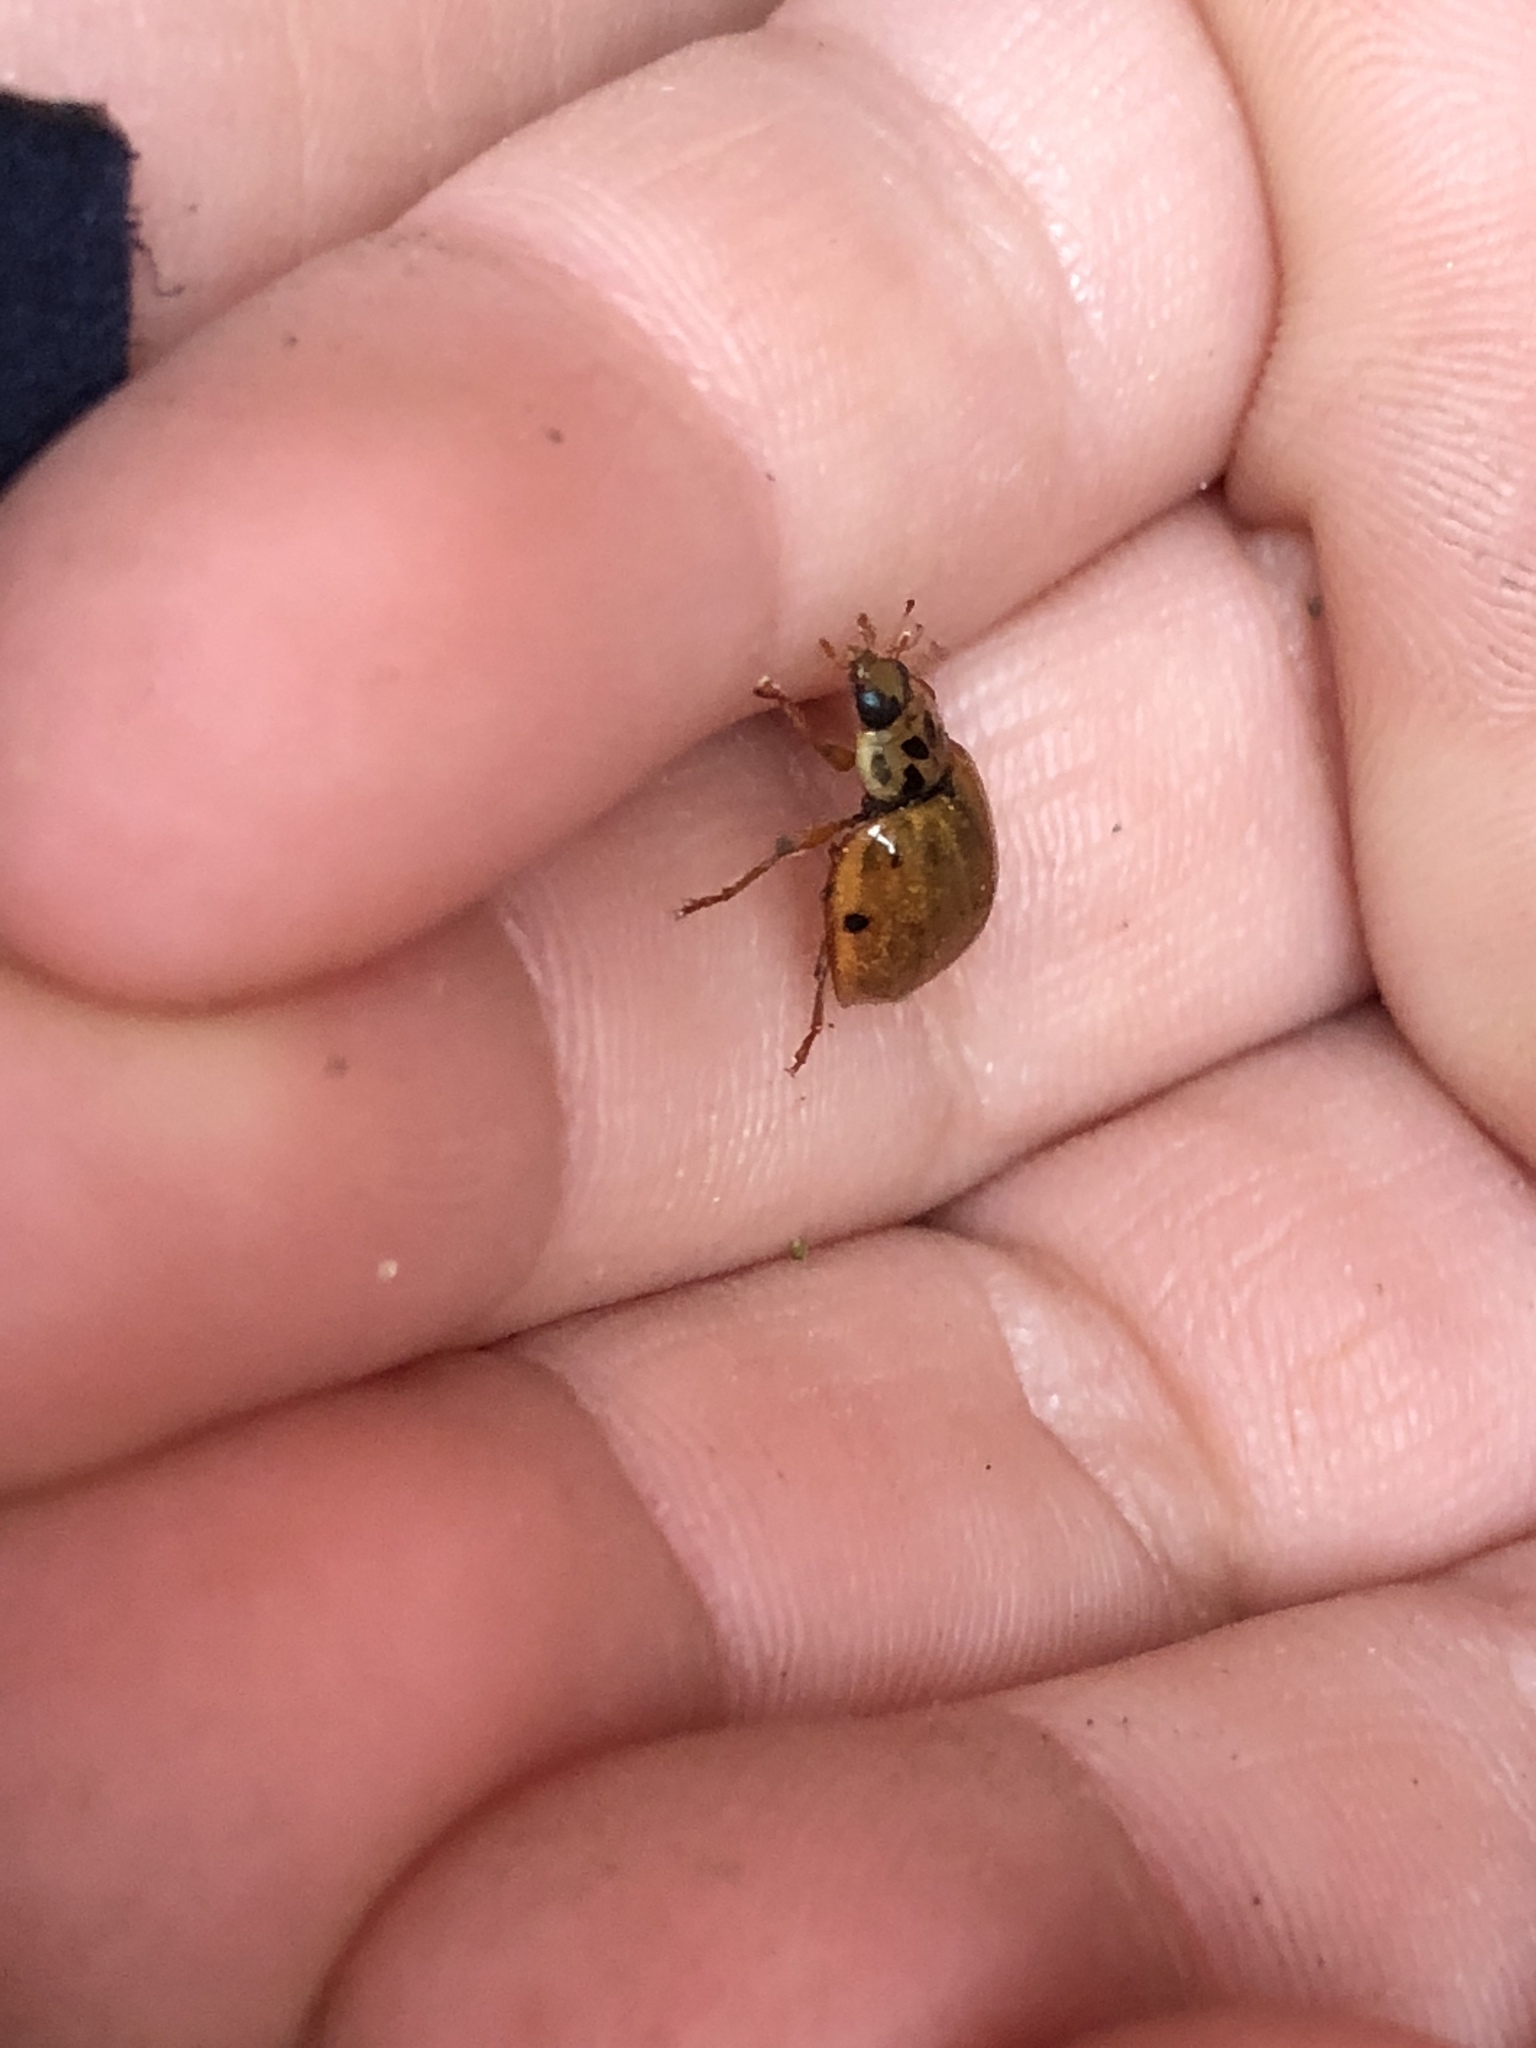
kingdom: Animalia
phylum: Arthropoda
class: Insecta
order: Coleoptera
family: Coccinellidae
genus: Harmonia
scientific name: Harmonia axyridis
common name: Harlequin ladybird
